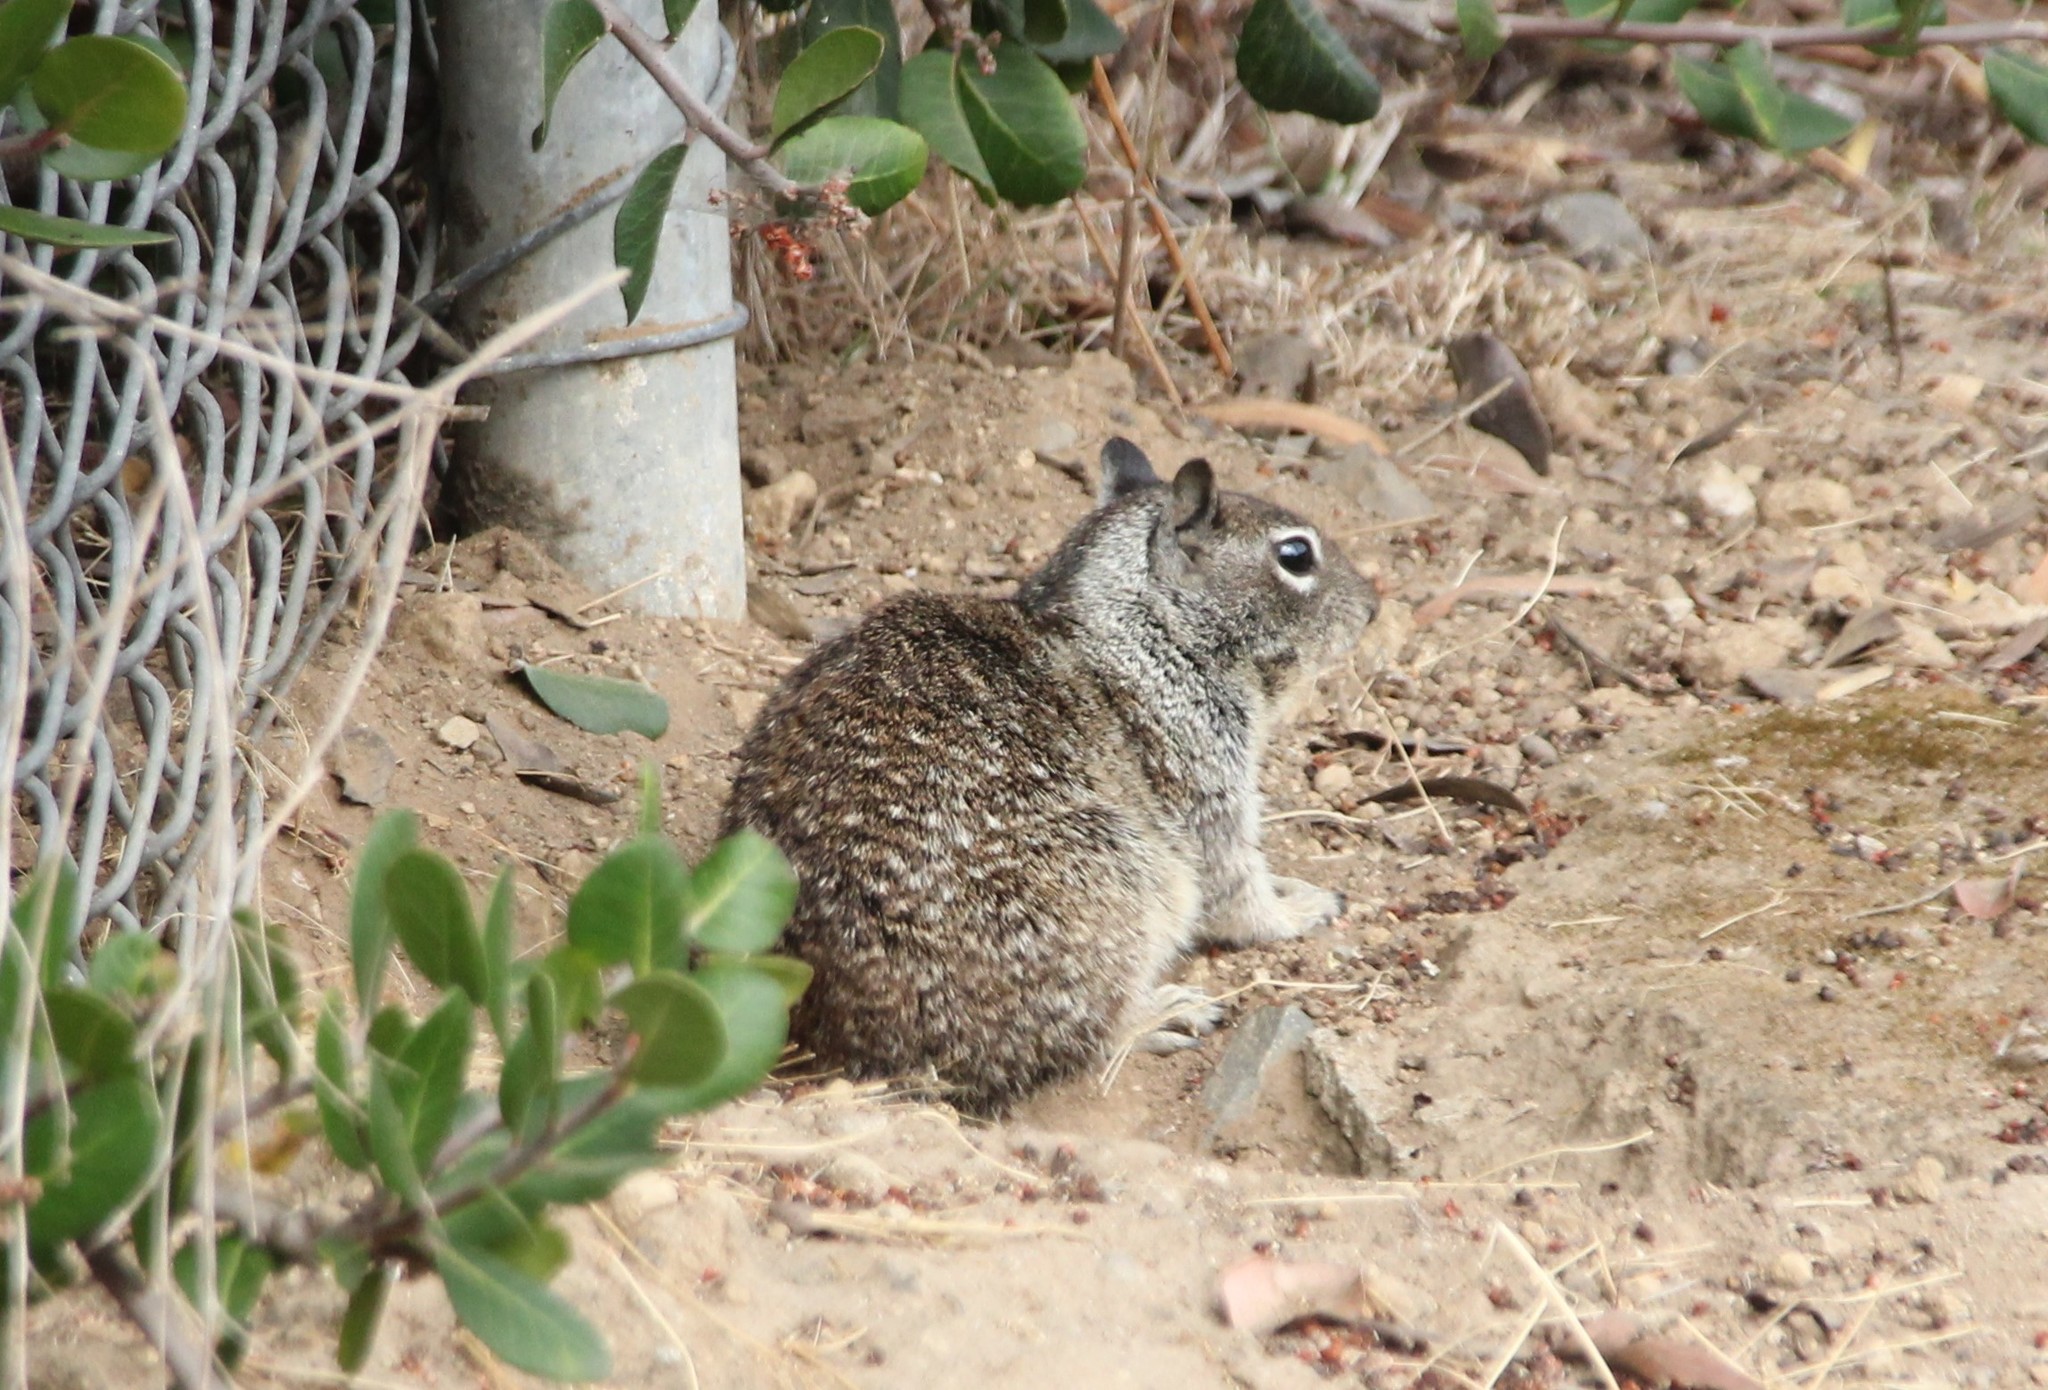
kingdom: Animalia
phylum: Chordata
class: Mammalia
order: Rodentia
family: Sciuridae
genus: Otospermophilus
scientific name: Otospermophilus beecheyi
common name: California ground squirrel
